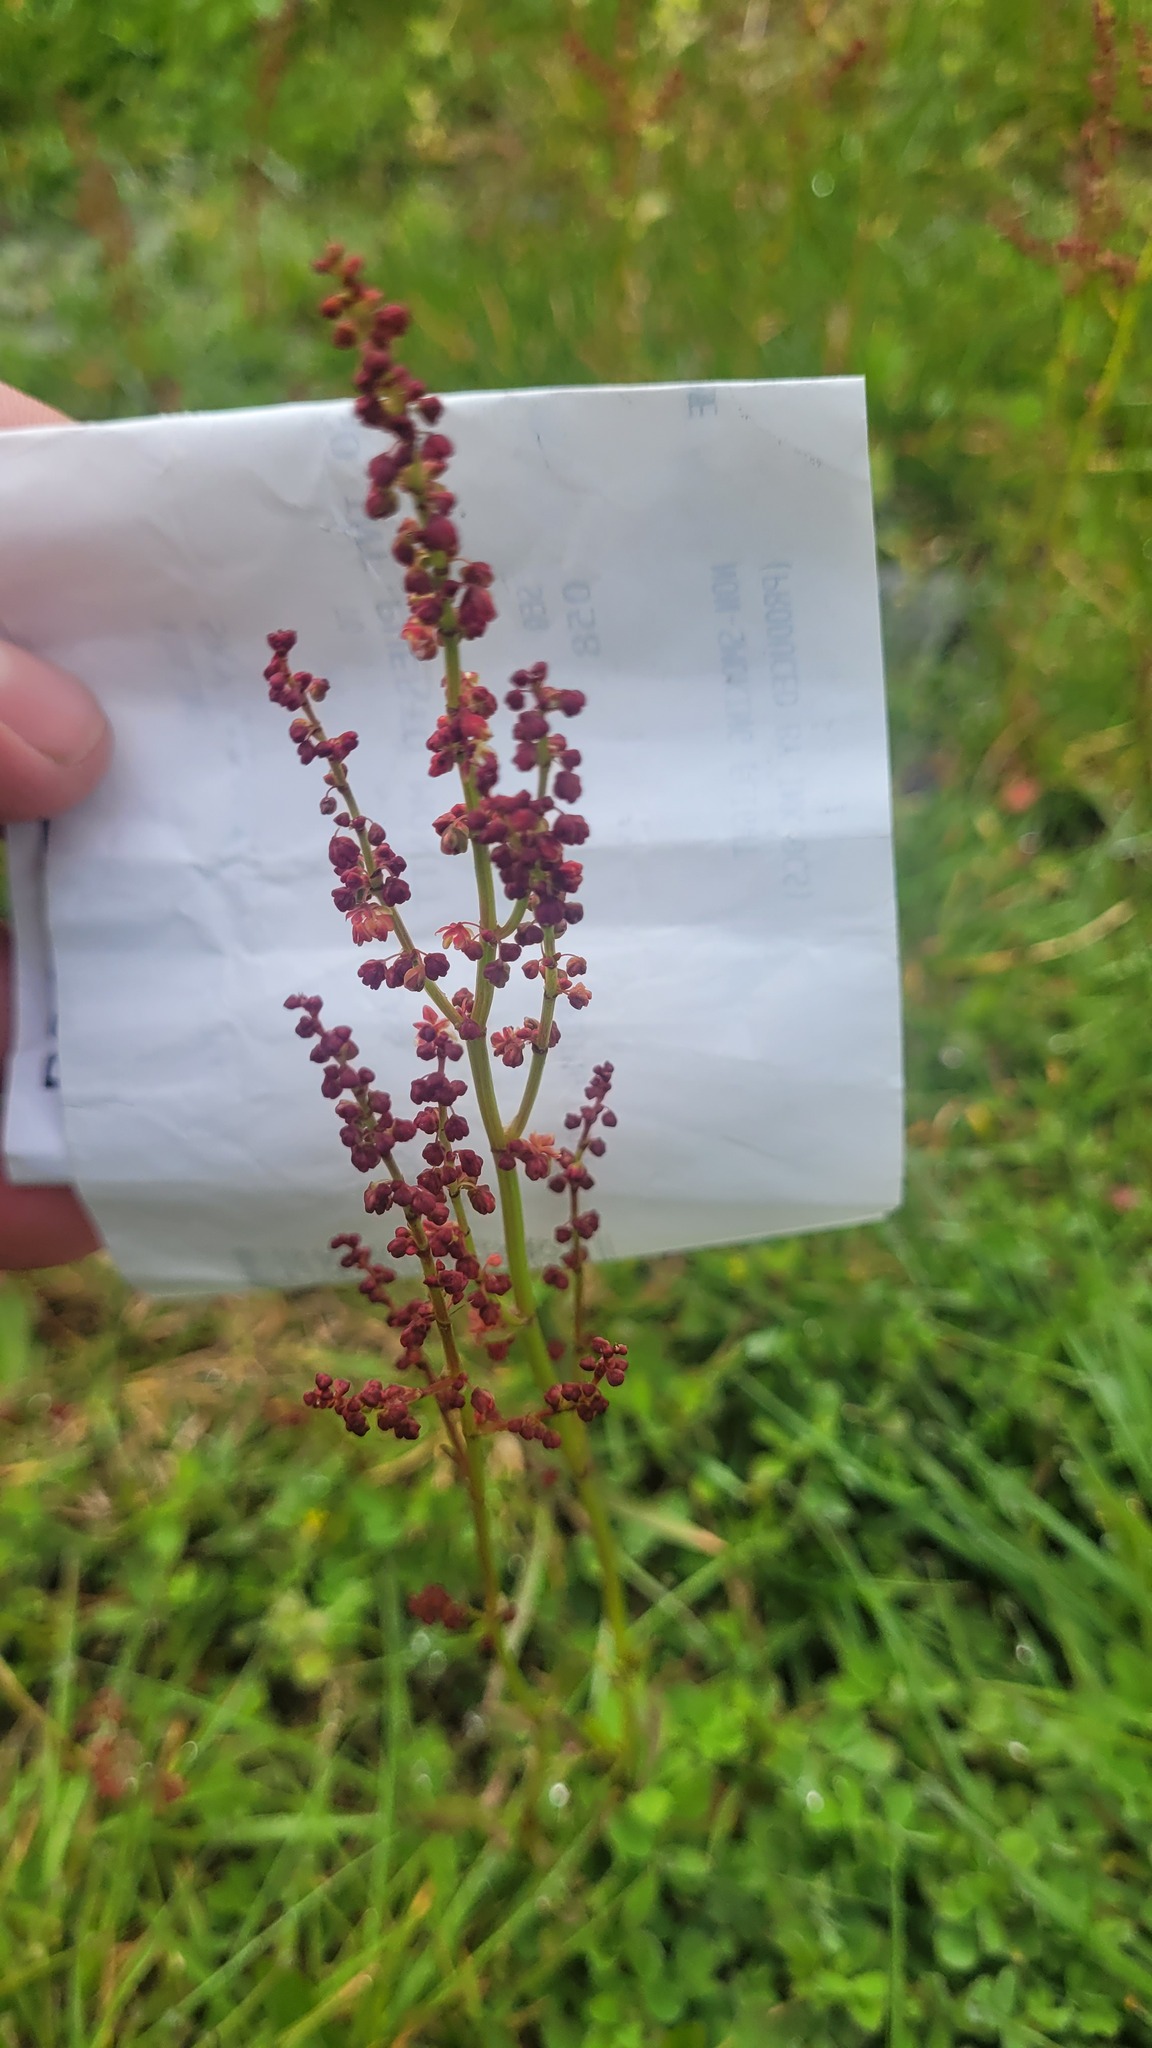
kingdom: Plantae
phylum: Tracheophyta
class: Magnoliopsida
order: Caryophyllales
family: Polygonaceae
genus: Rumex
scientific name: Rumex acetosella
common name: Common sheep sorrel
